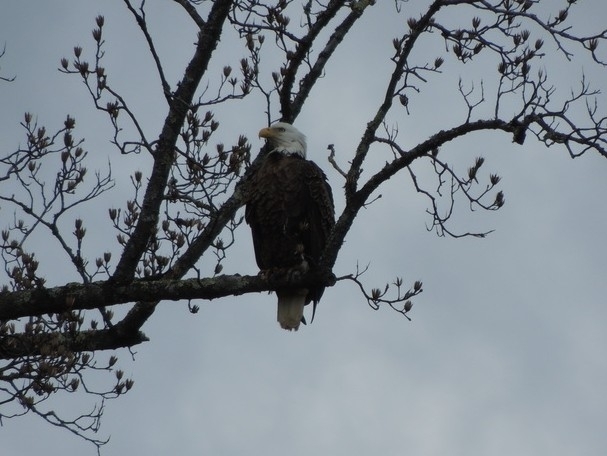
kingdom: Animalia
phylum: Chordata
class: Aves
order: Accipitriformes
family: Accipitridae
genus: Haliaeetus
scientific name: Haliaeetus leucocephalus
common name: Bald eagle
